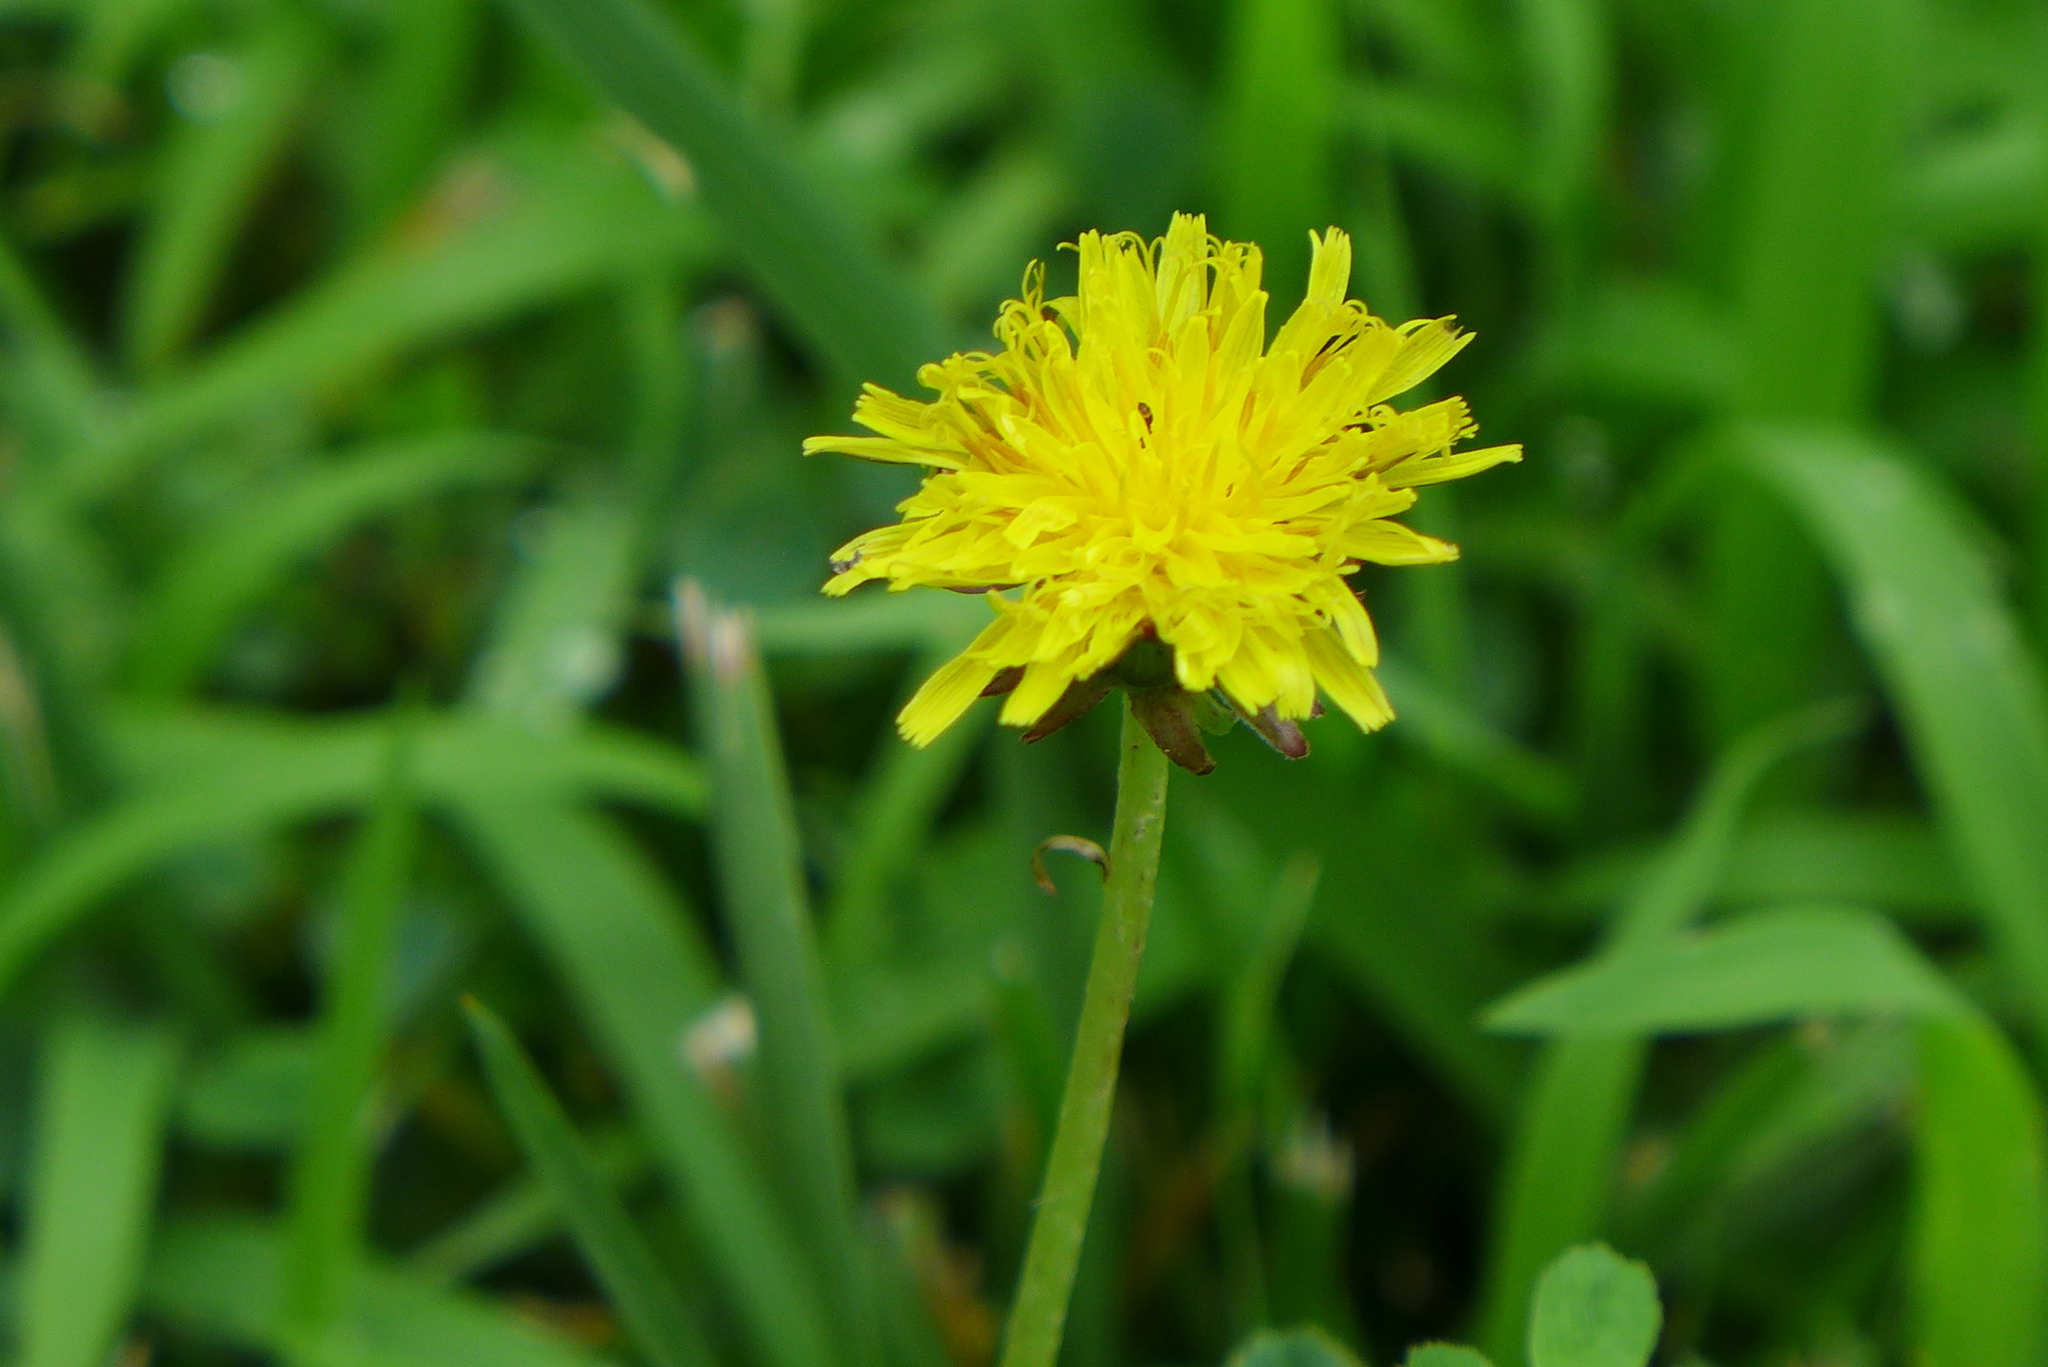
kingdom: Plantae
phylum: Tracheophyta
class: Magnoliopsida
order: Asterales
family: Asteraceae
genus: Taraxacum
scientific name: Taraxacum officinale
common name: Common dandelion
